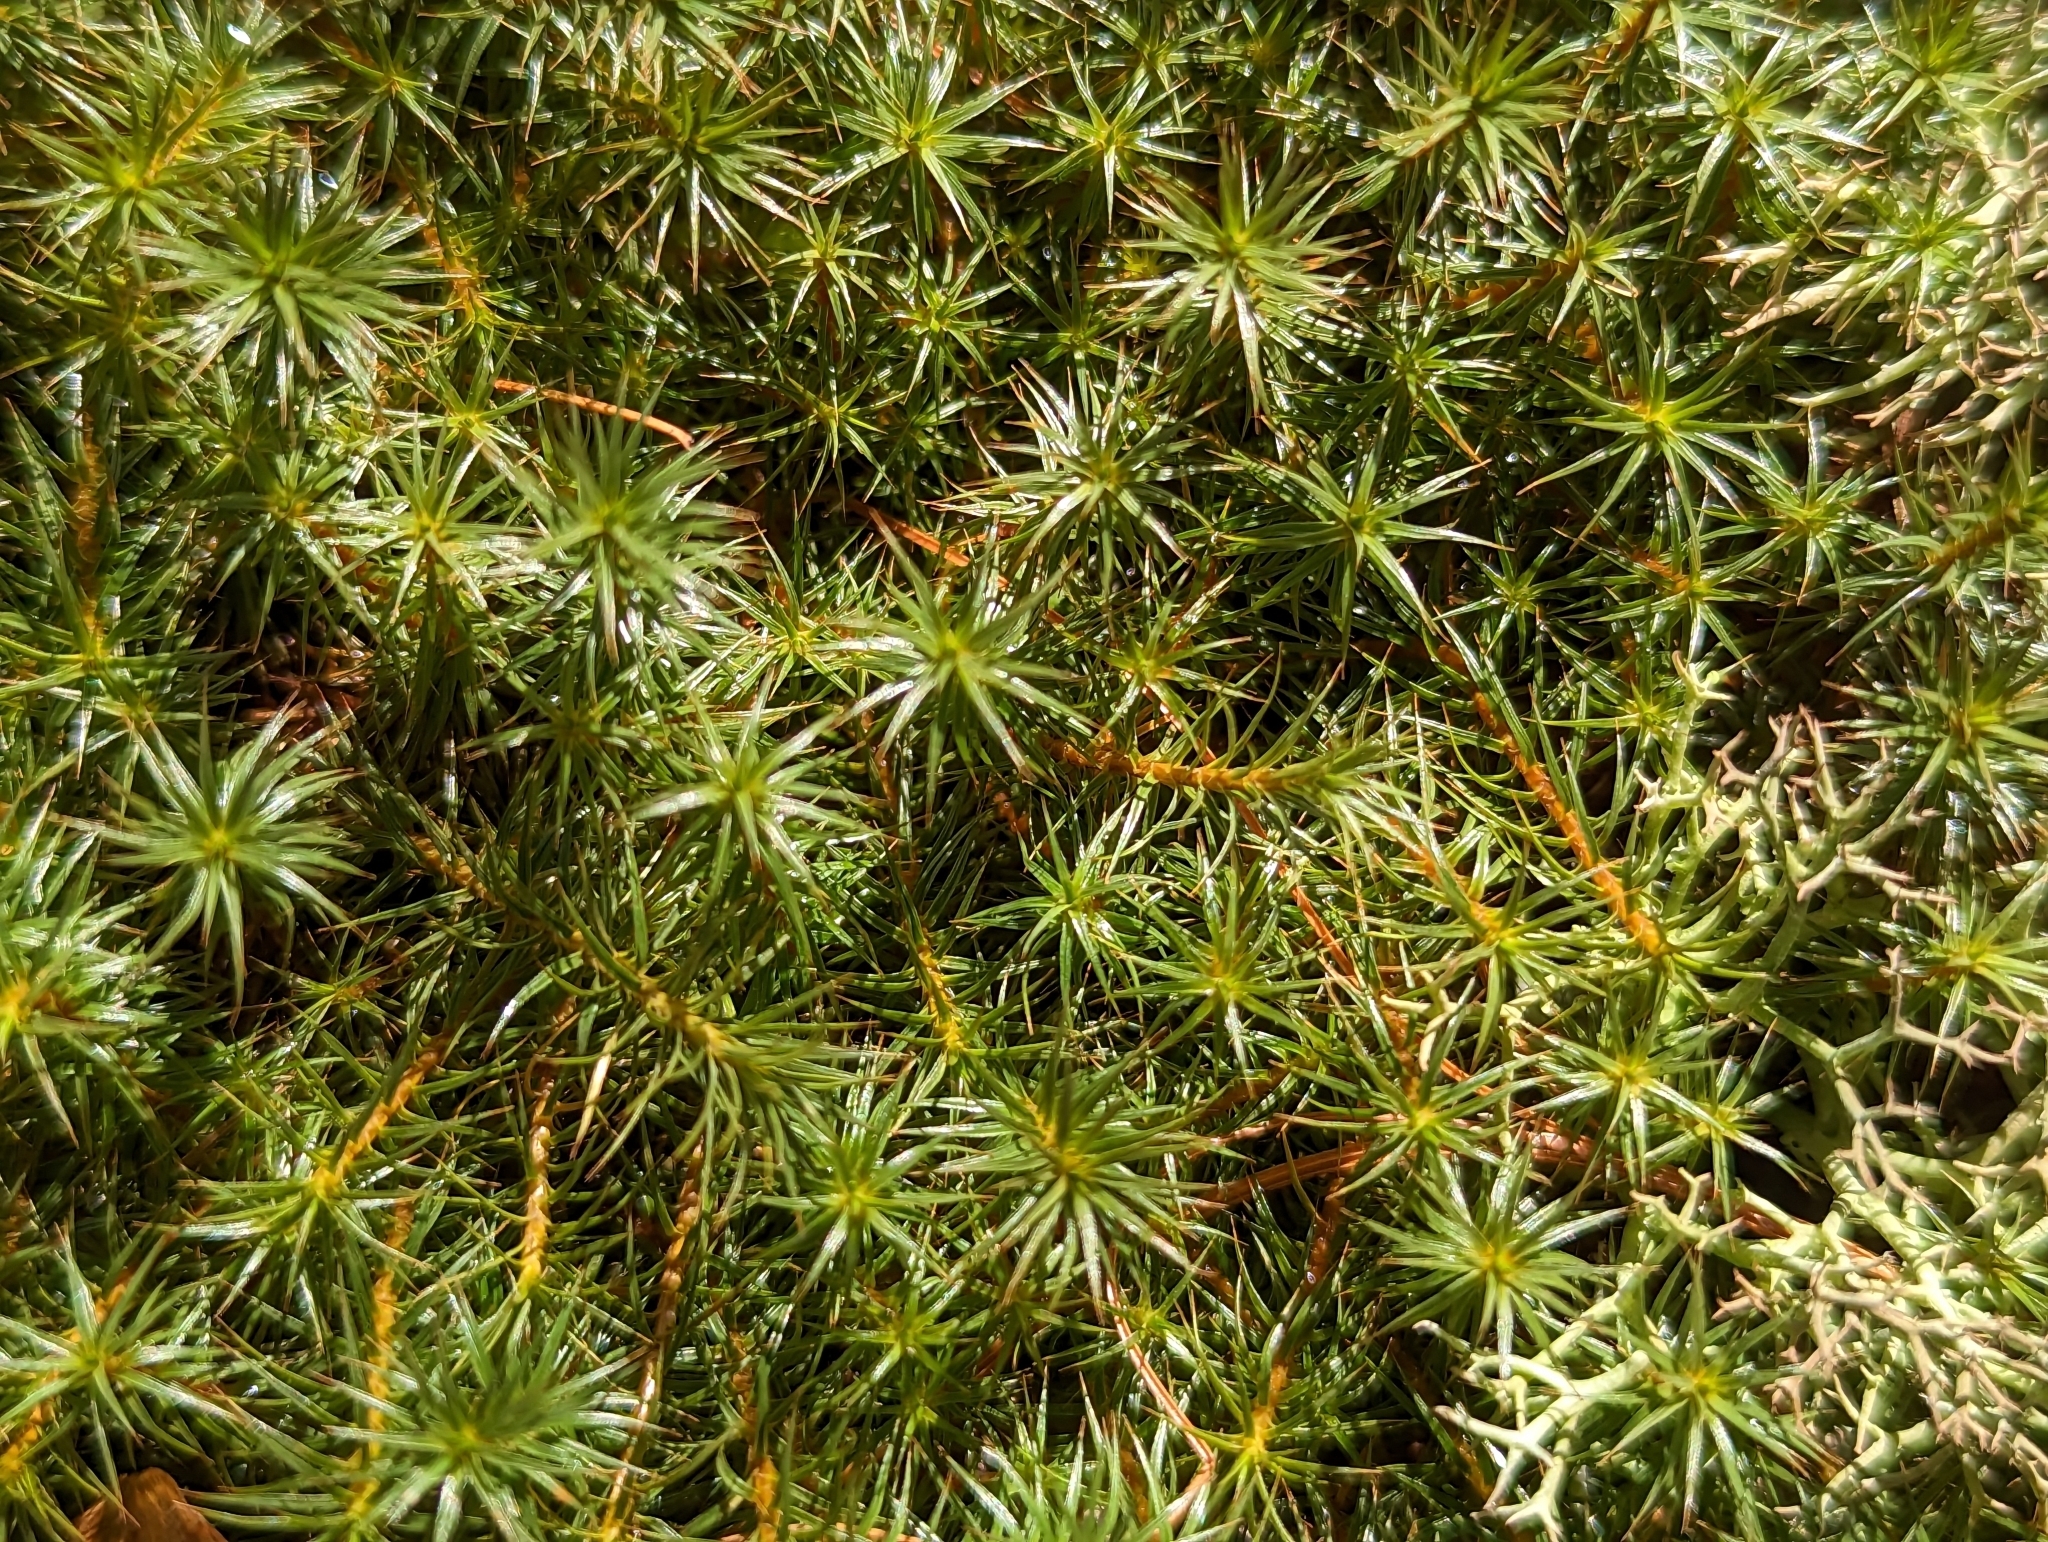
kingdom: Plantae
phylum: Bryophyta
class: Polytrichopsida
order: Polytrichales
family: Polytrichaceae
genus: Polytrichum
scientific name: Polytrichum juniperinum
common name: Juniper haircap moss
